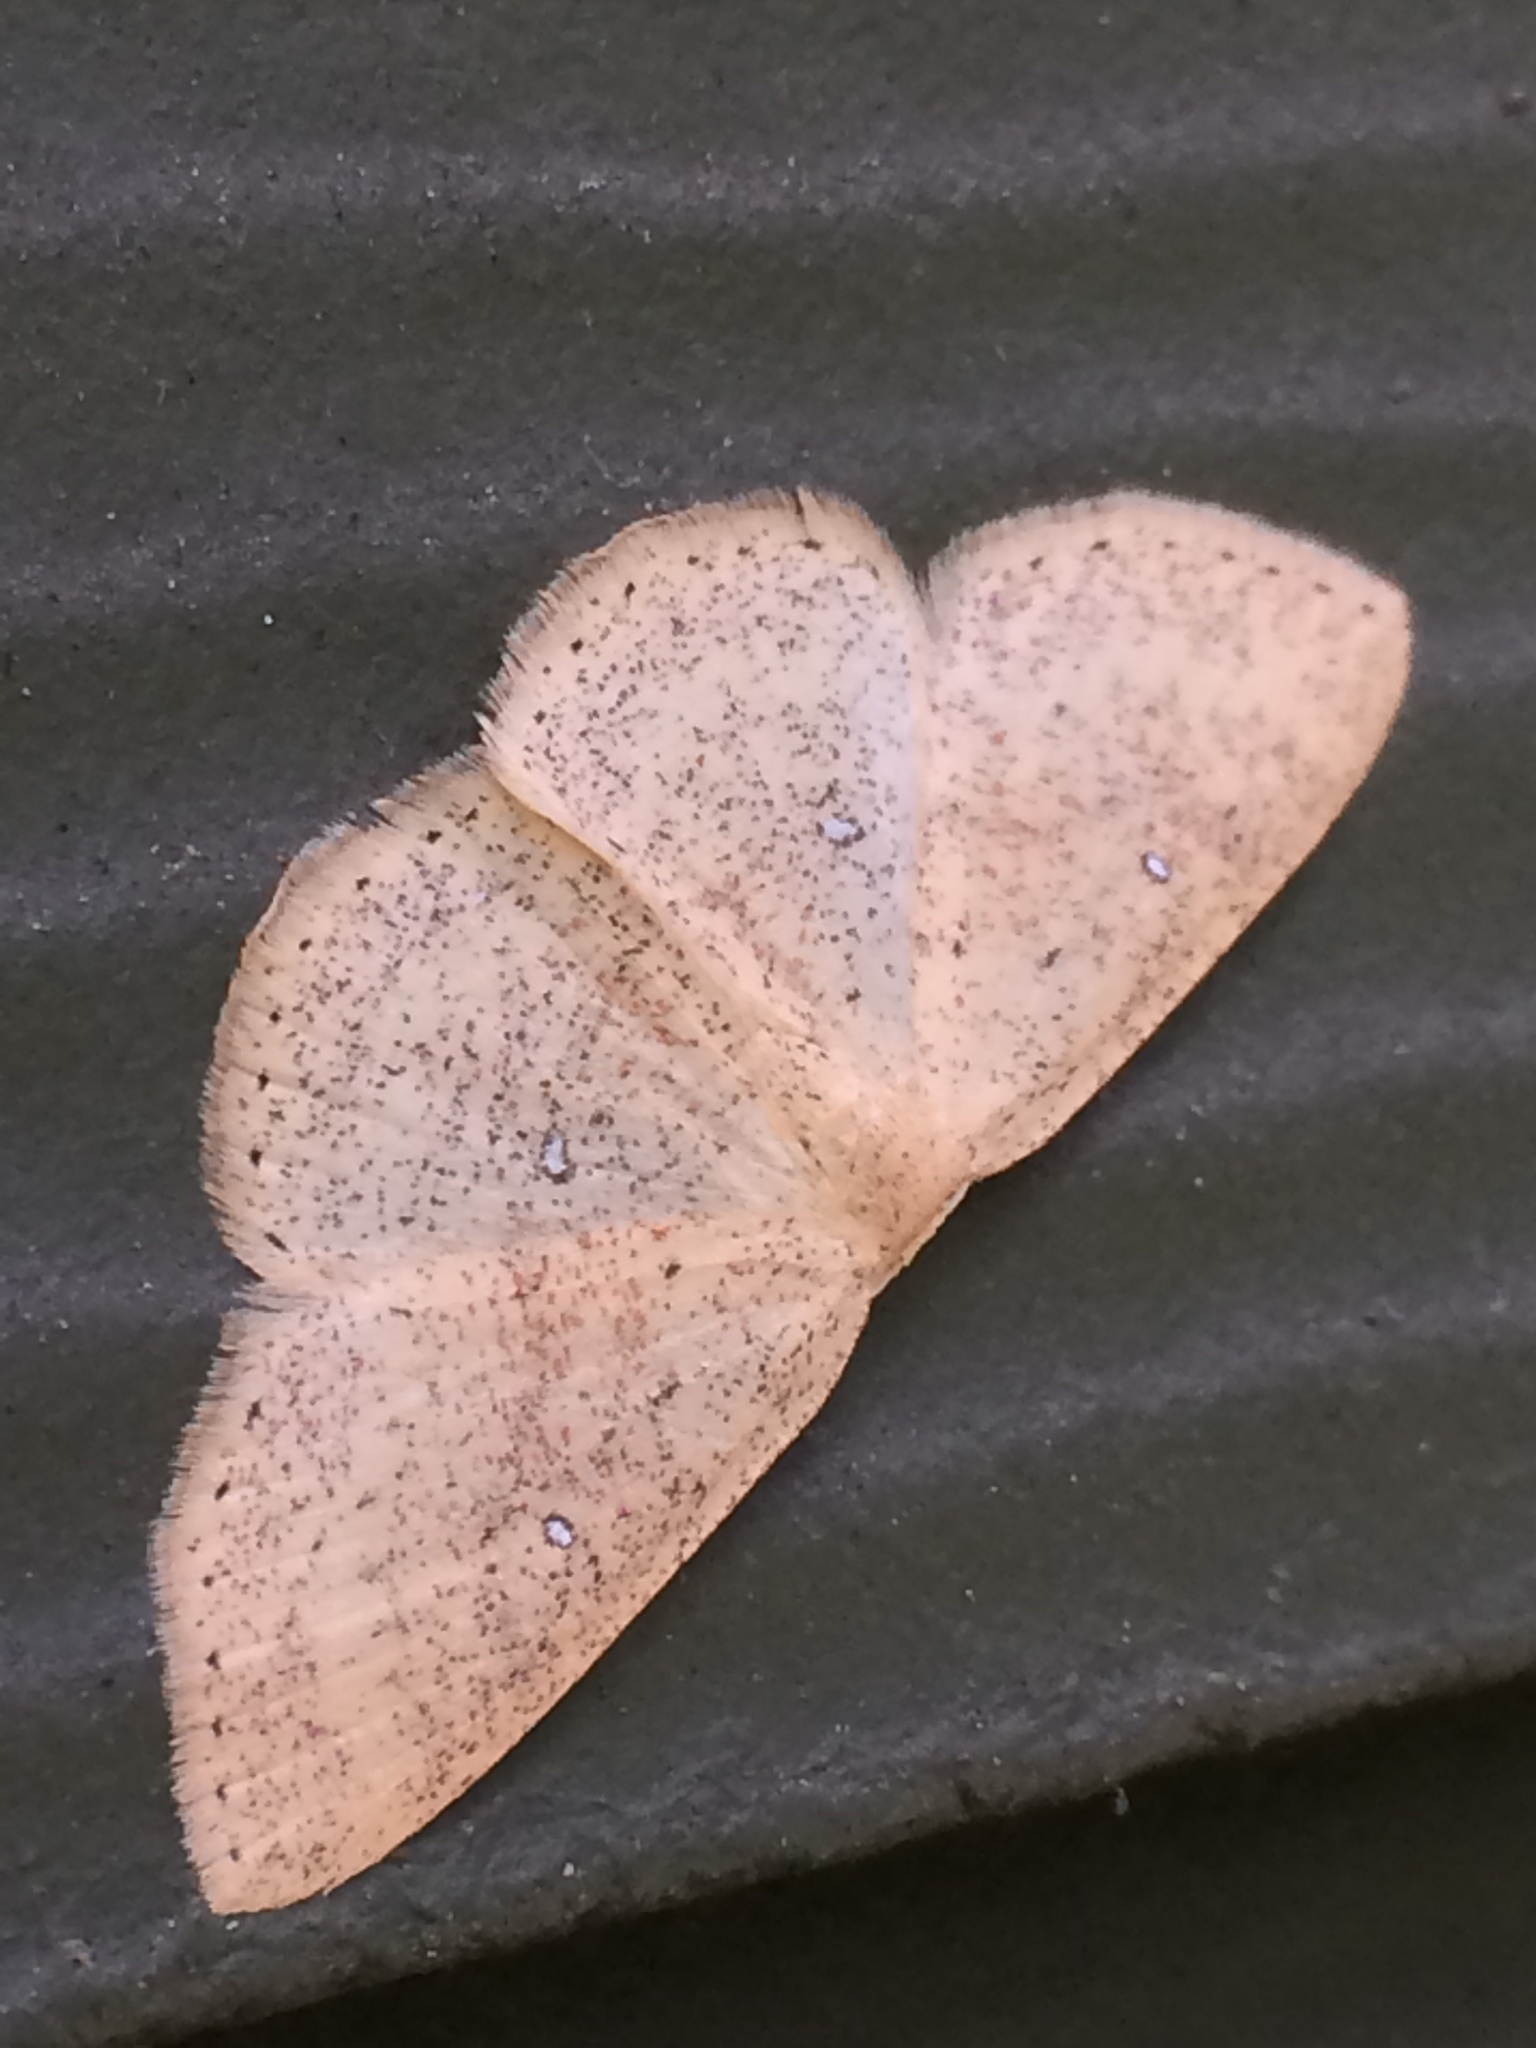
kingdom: Animalia
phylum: Arthropoda
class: Insecta
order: Lepidoptera
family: Geometridae
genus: Cyclophora
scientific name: Cyclophora dataria
